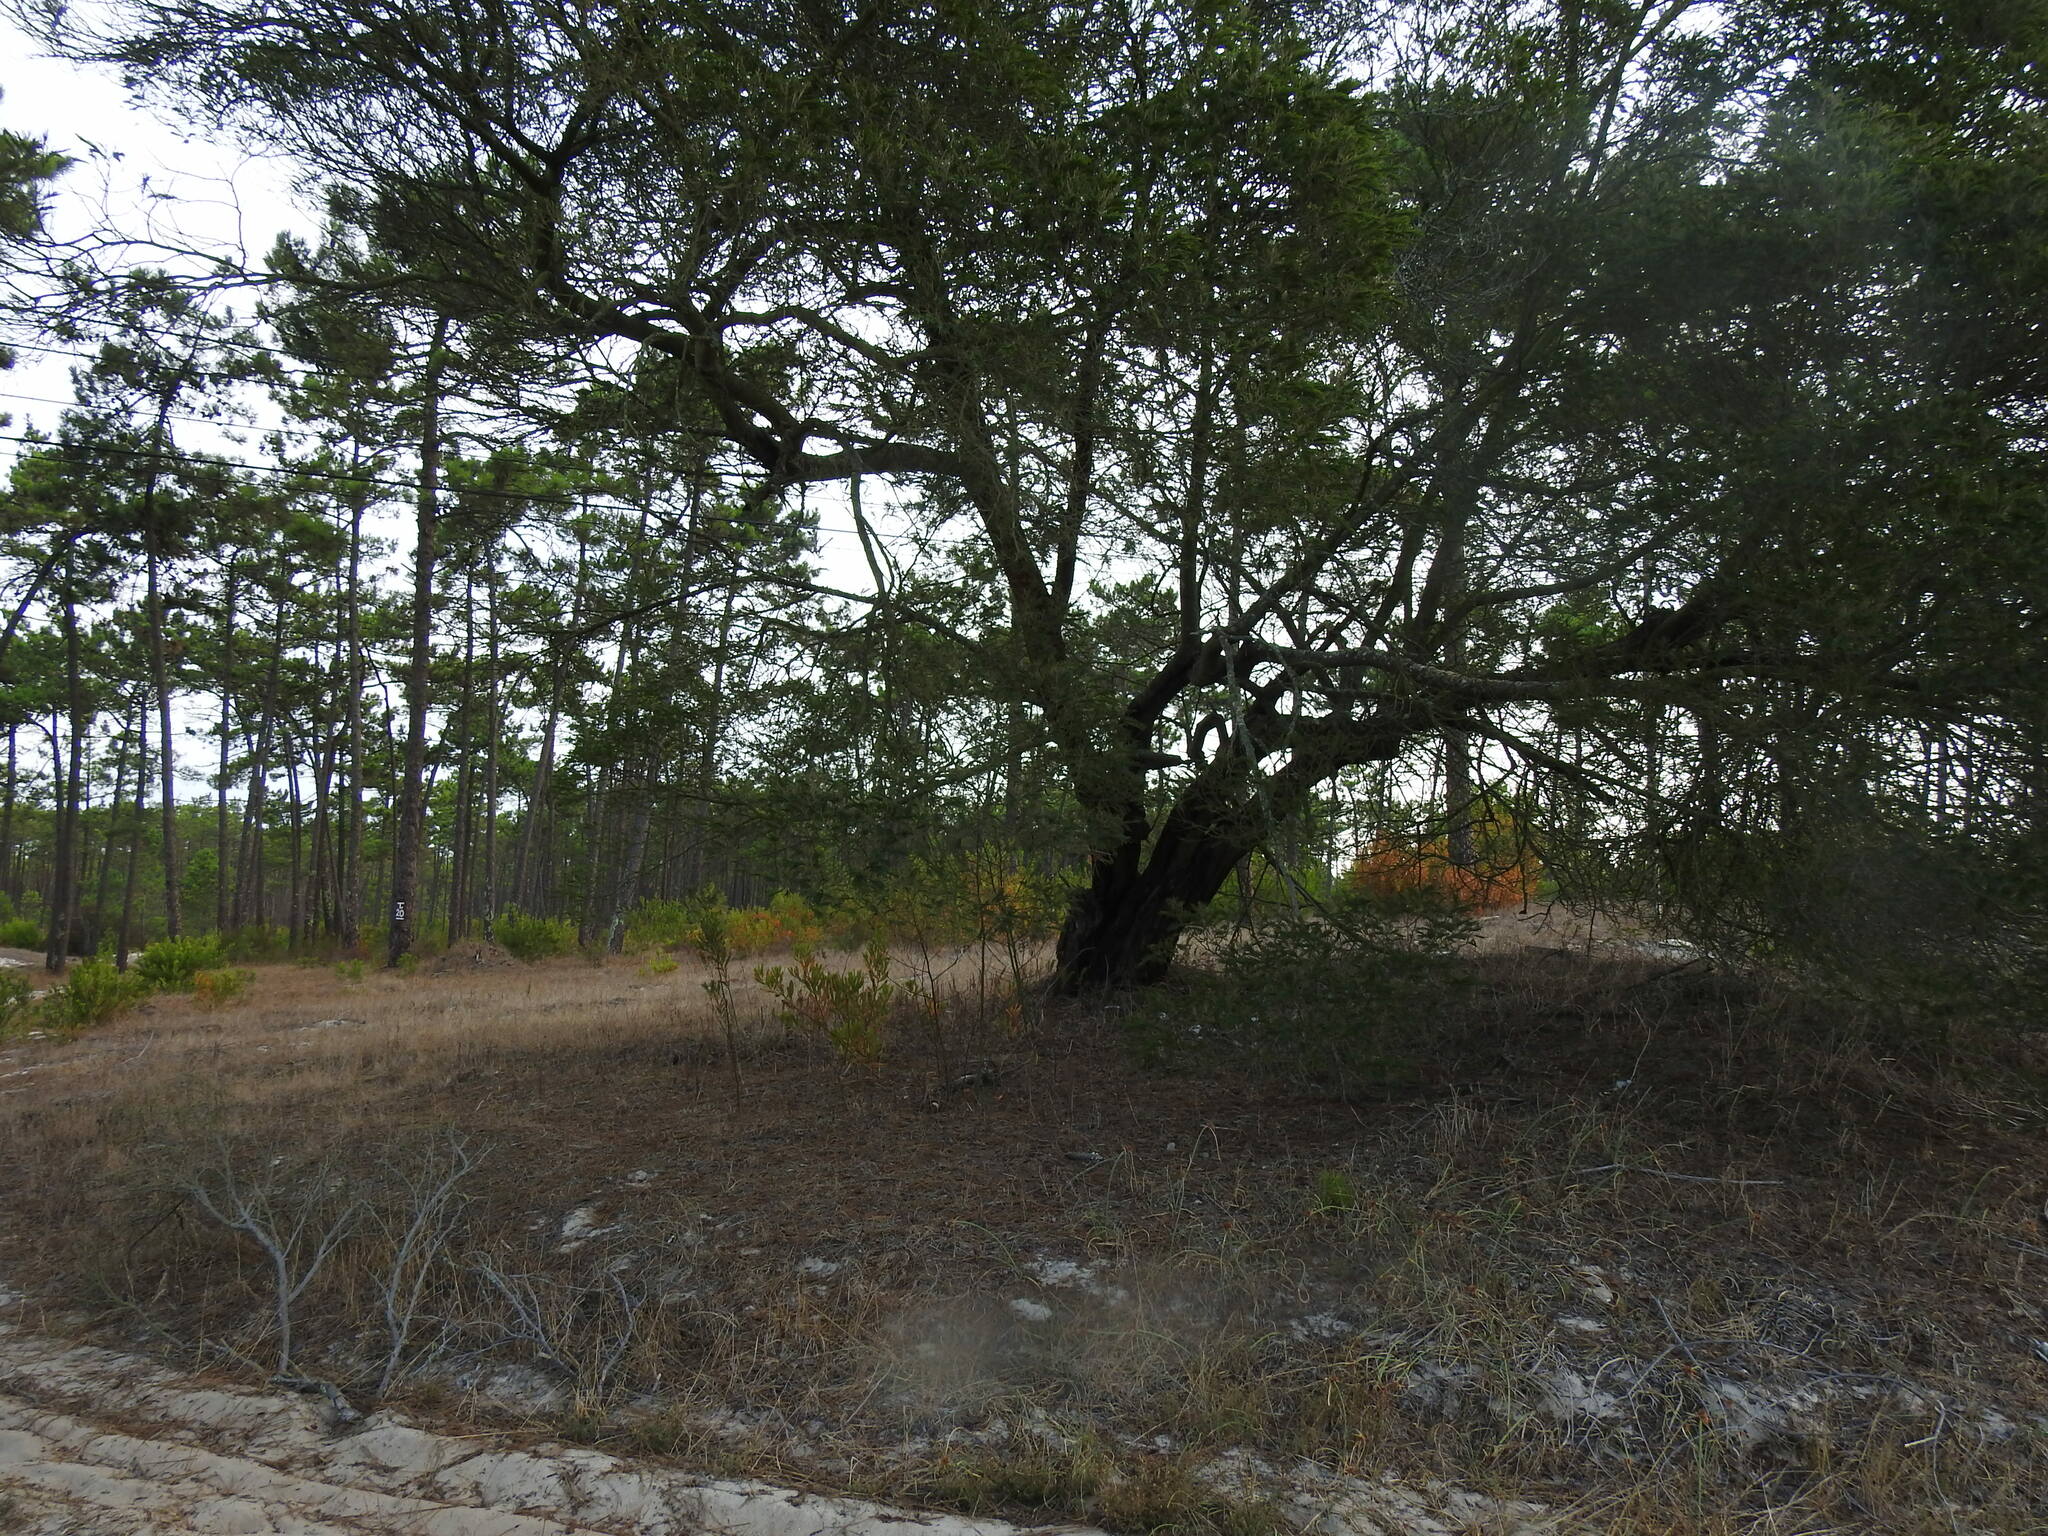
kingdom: Plantae
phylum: Tracheophyta
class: Magnoliopsida
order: Fabales
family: Fabaceae
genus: Acacia
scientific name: Acacia mearnsii
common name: Black wattle
